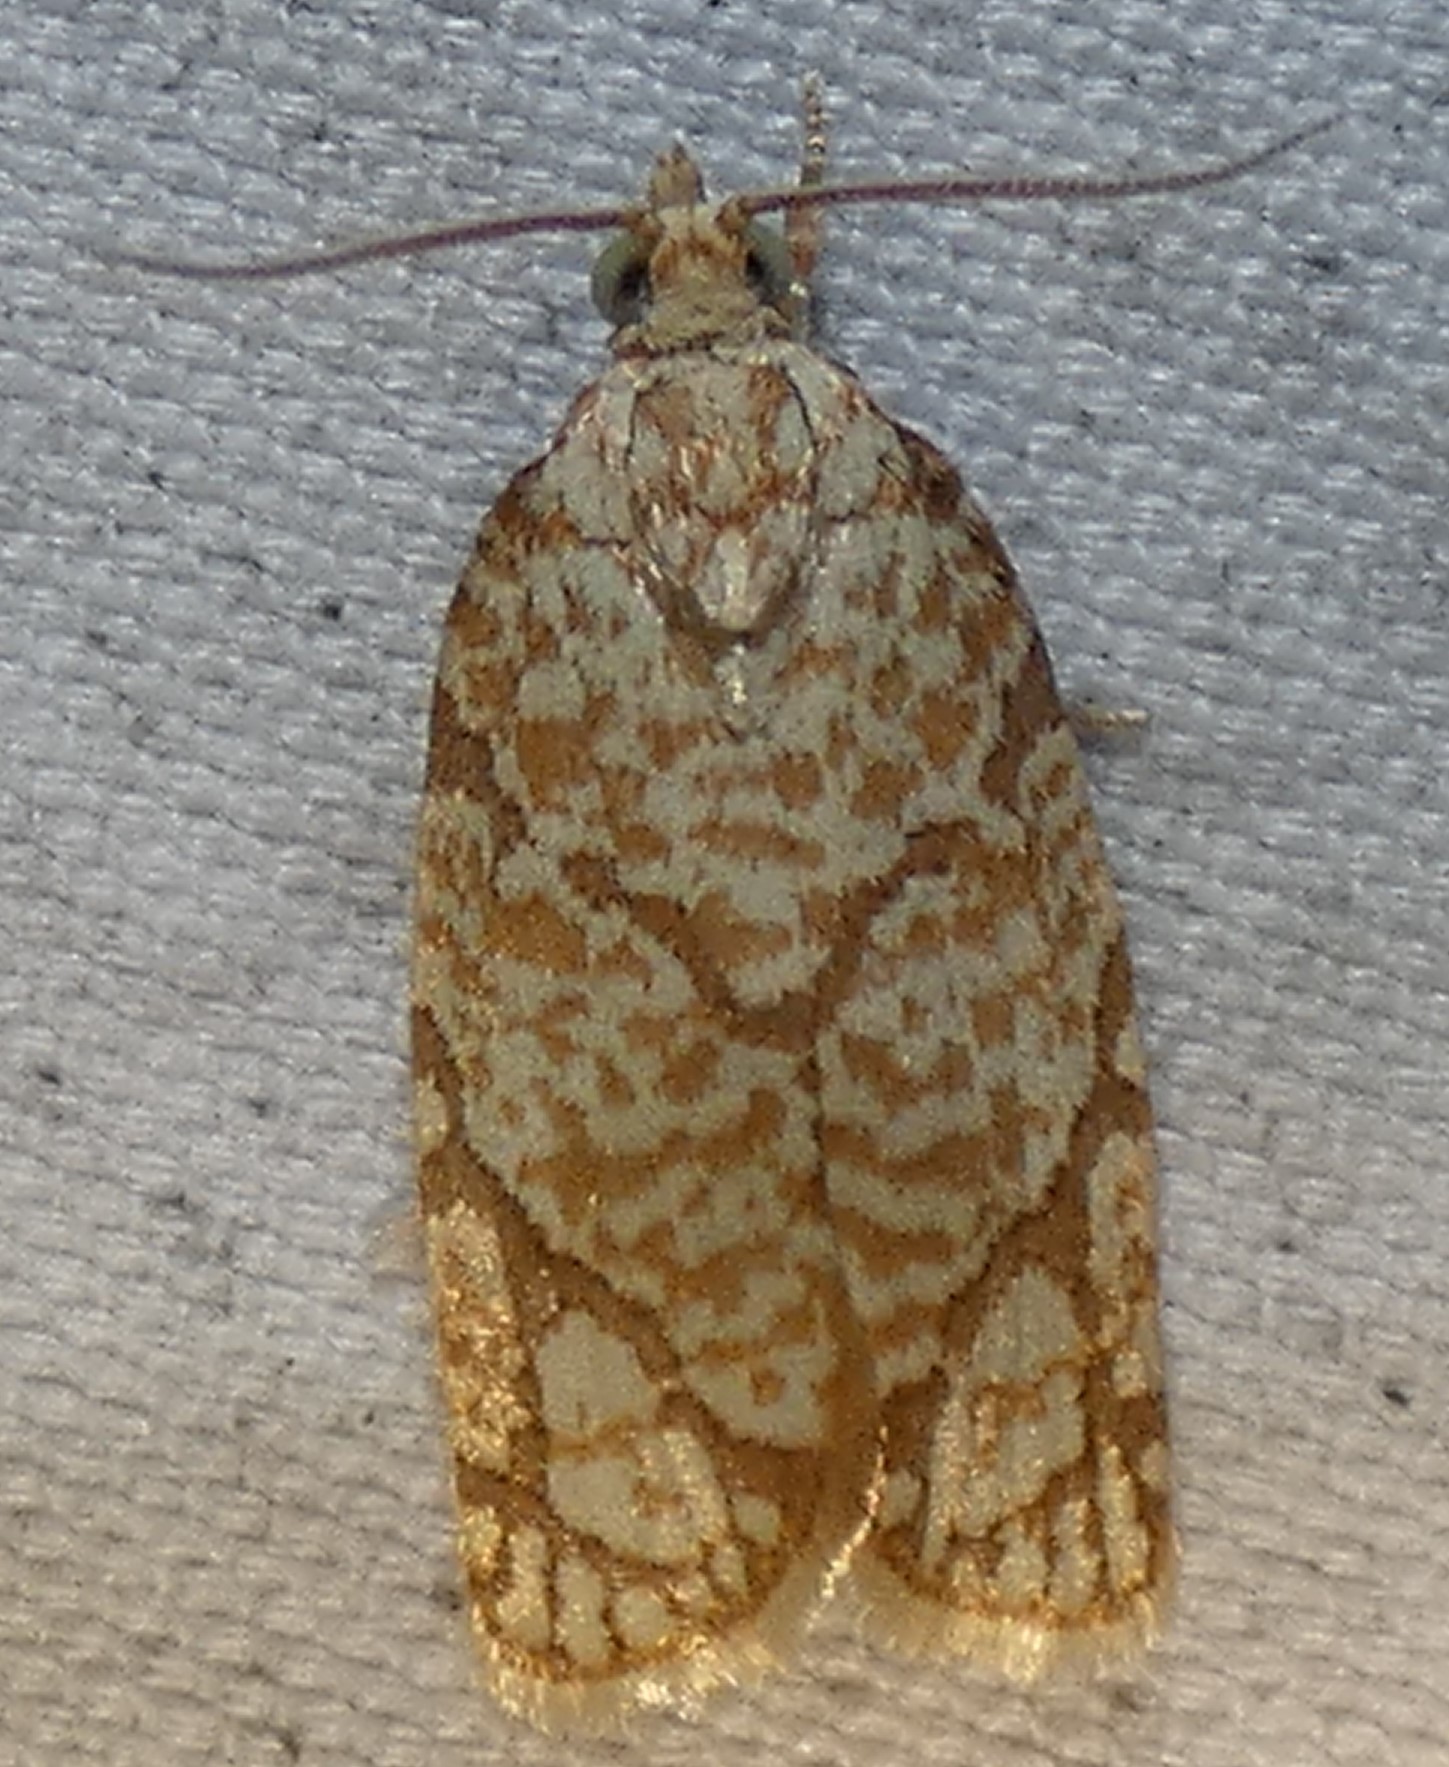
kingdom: Animalia
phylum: Arthropoda
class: Insecta
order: Lepidoptera
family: Tortricidae
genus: Argyrotaenia
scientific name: Argyrotaenia quercifoliana
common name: Yellow-winged oak leafroller moth
